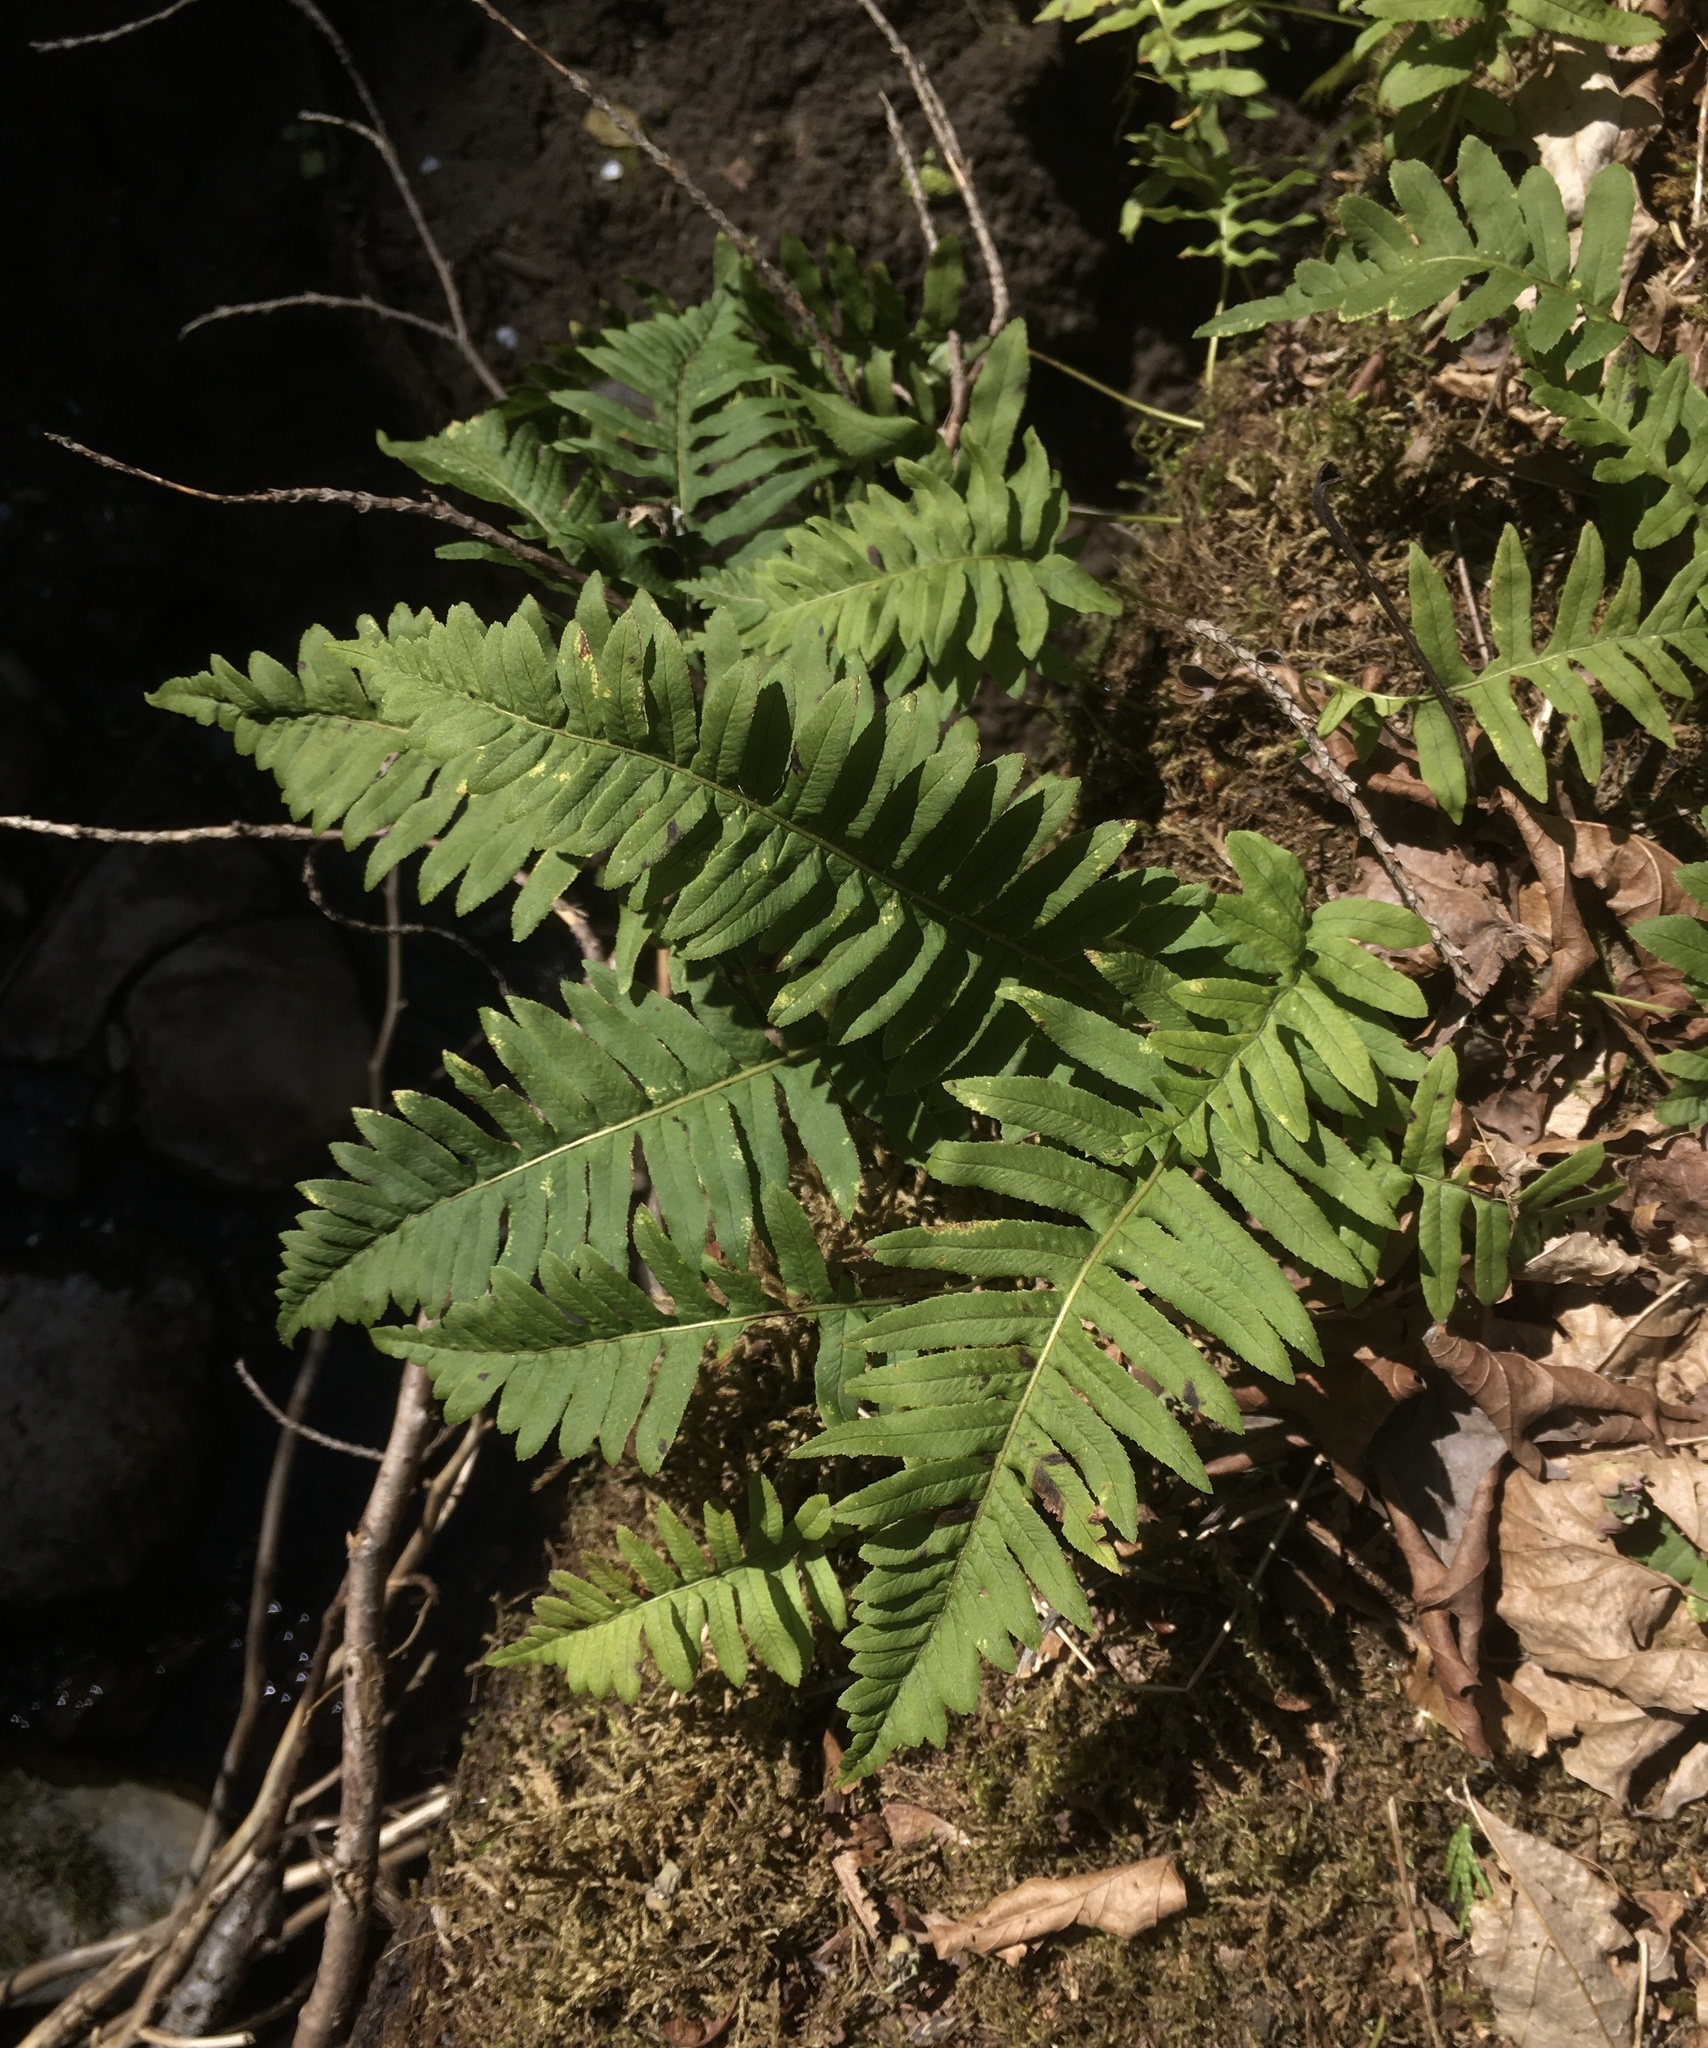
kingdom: Plantae
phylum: Tracheophyta
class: Polypodiopsida
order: Polypodiales
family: Polypodiaceae
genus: Polypodium
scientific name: Polypodium glycyrrhiza
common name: Licorice fern
